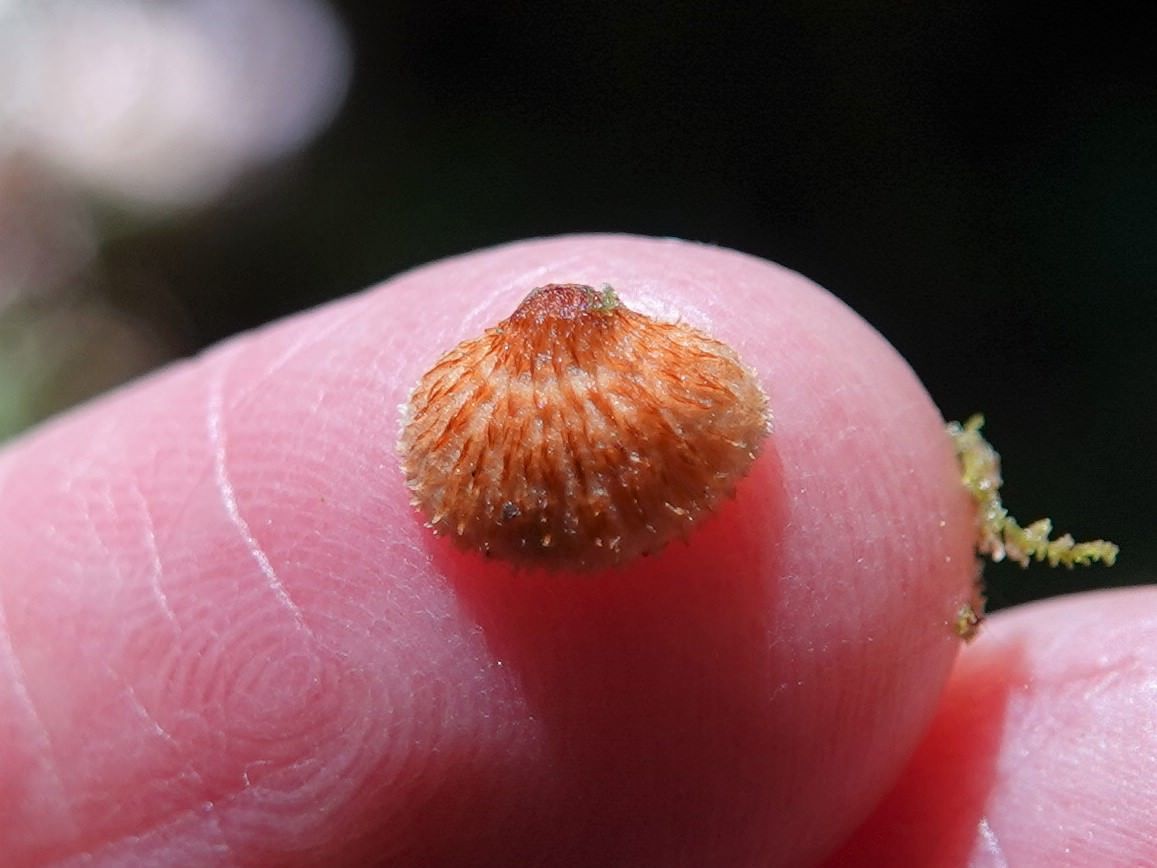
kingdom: Fungi
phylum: Basidiomycota
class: Agaricomycetes
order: Agaricales
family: Marasmiaceae
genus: Chaetocalathus
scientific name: Chaetocalathus cocciformis
